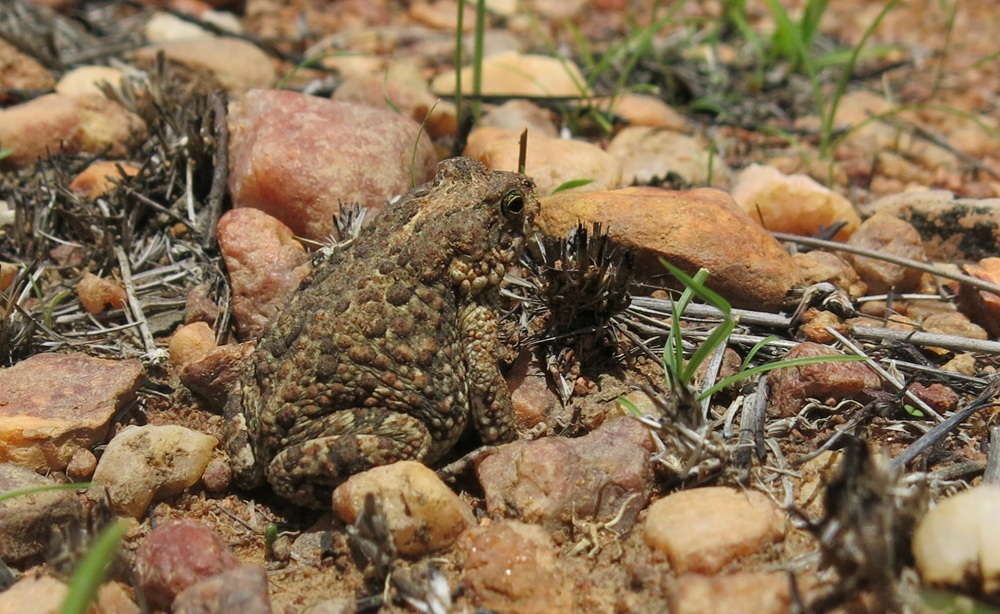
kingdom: Animalia
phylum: Chordata
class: Amphibia
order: Anura
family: Bufonidae
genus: Poyntonophrynus
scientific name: Poyntonophrynus fenoulheti
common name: Fenoulhet's toad
